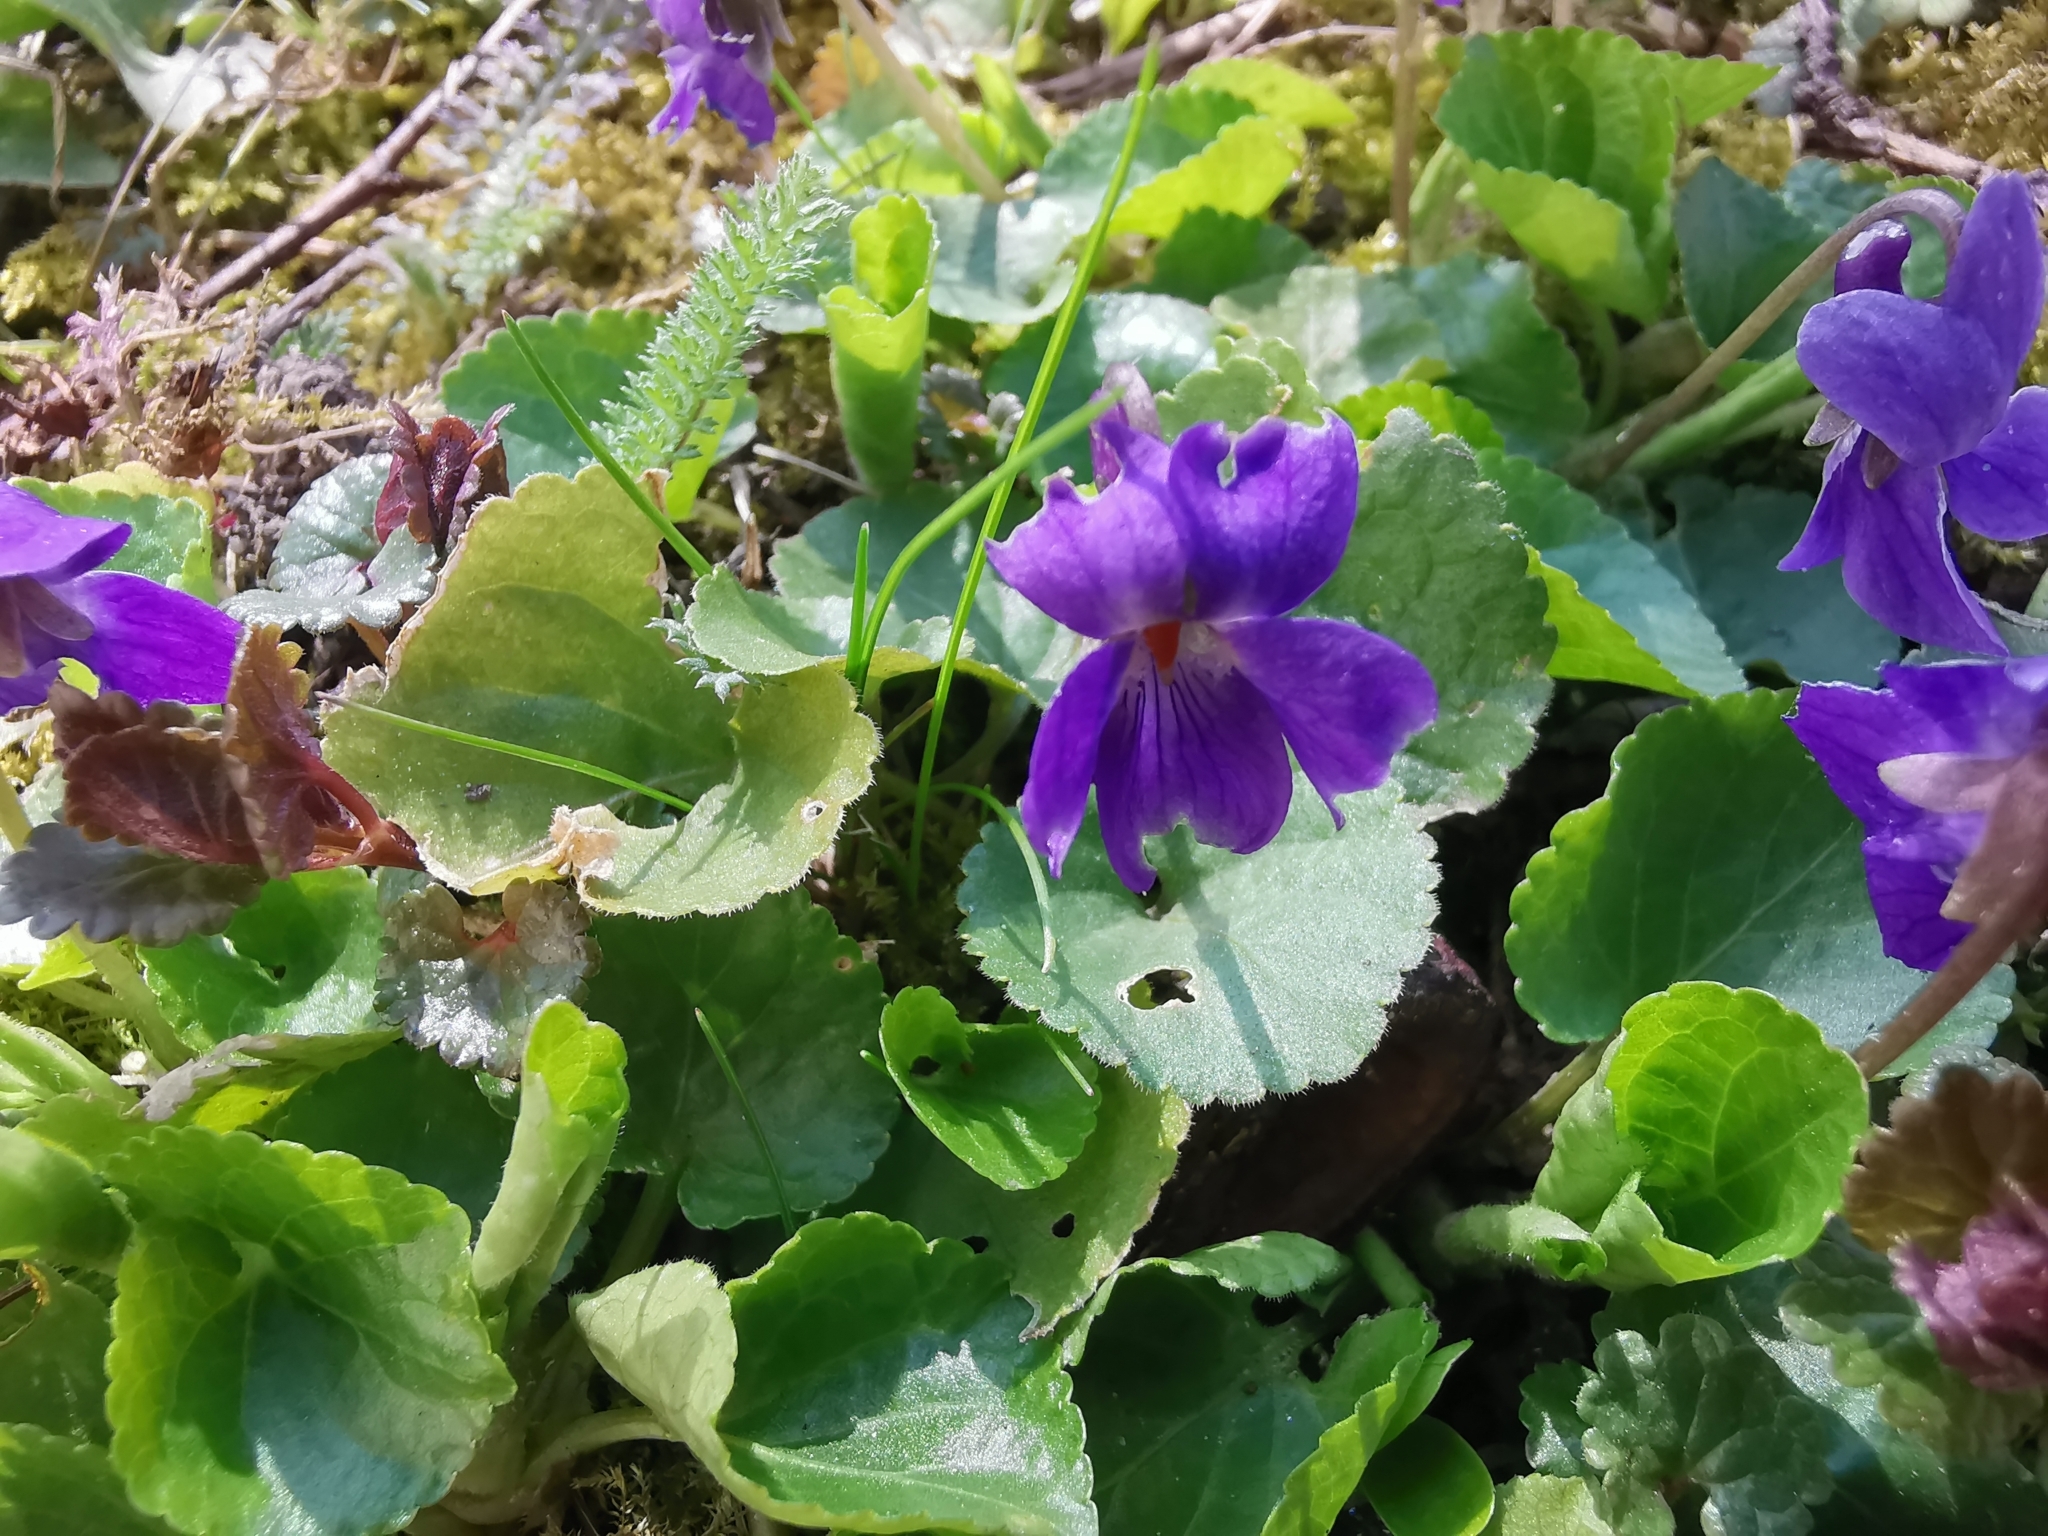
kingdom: Plantae
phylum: Tracheophyta
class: Magnoliopsida
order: Malpighiales
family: Violaceae
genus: Viola
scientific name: Viola odorata
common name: Sweet violet
